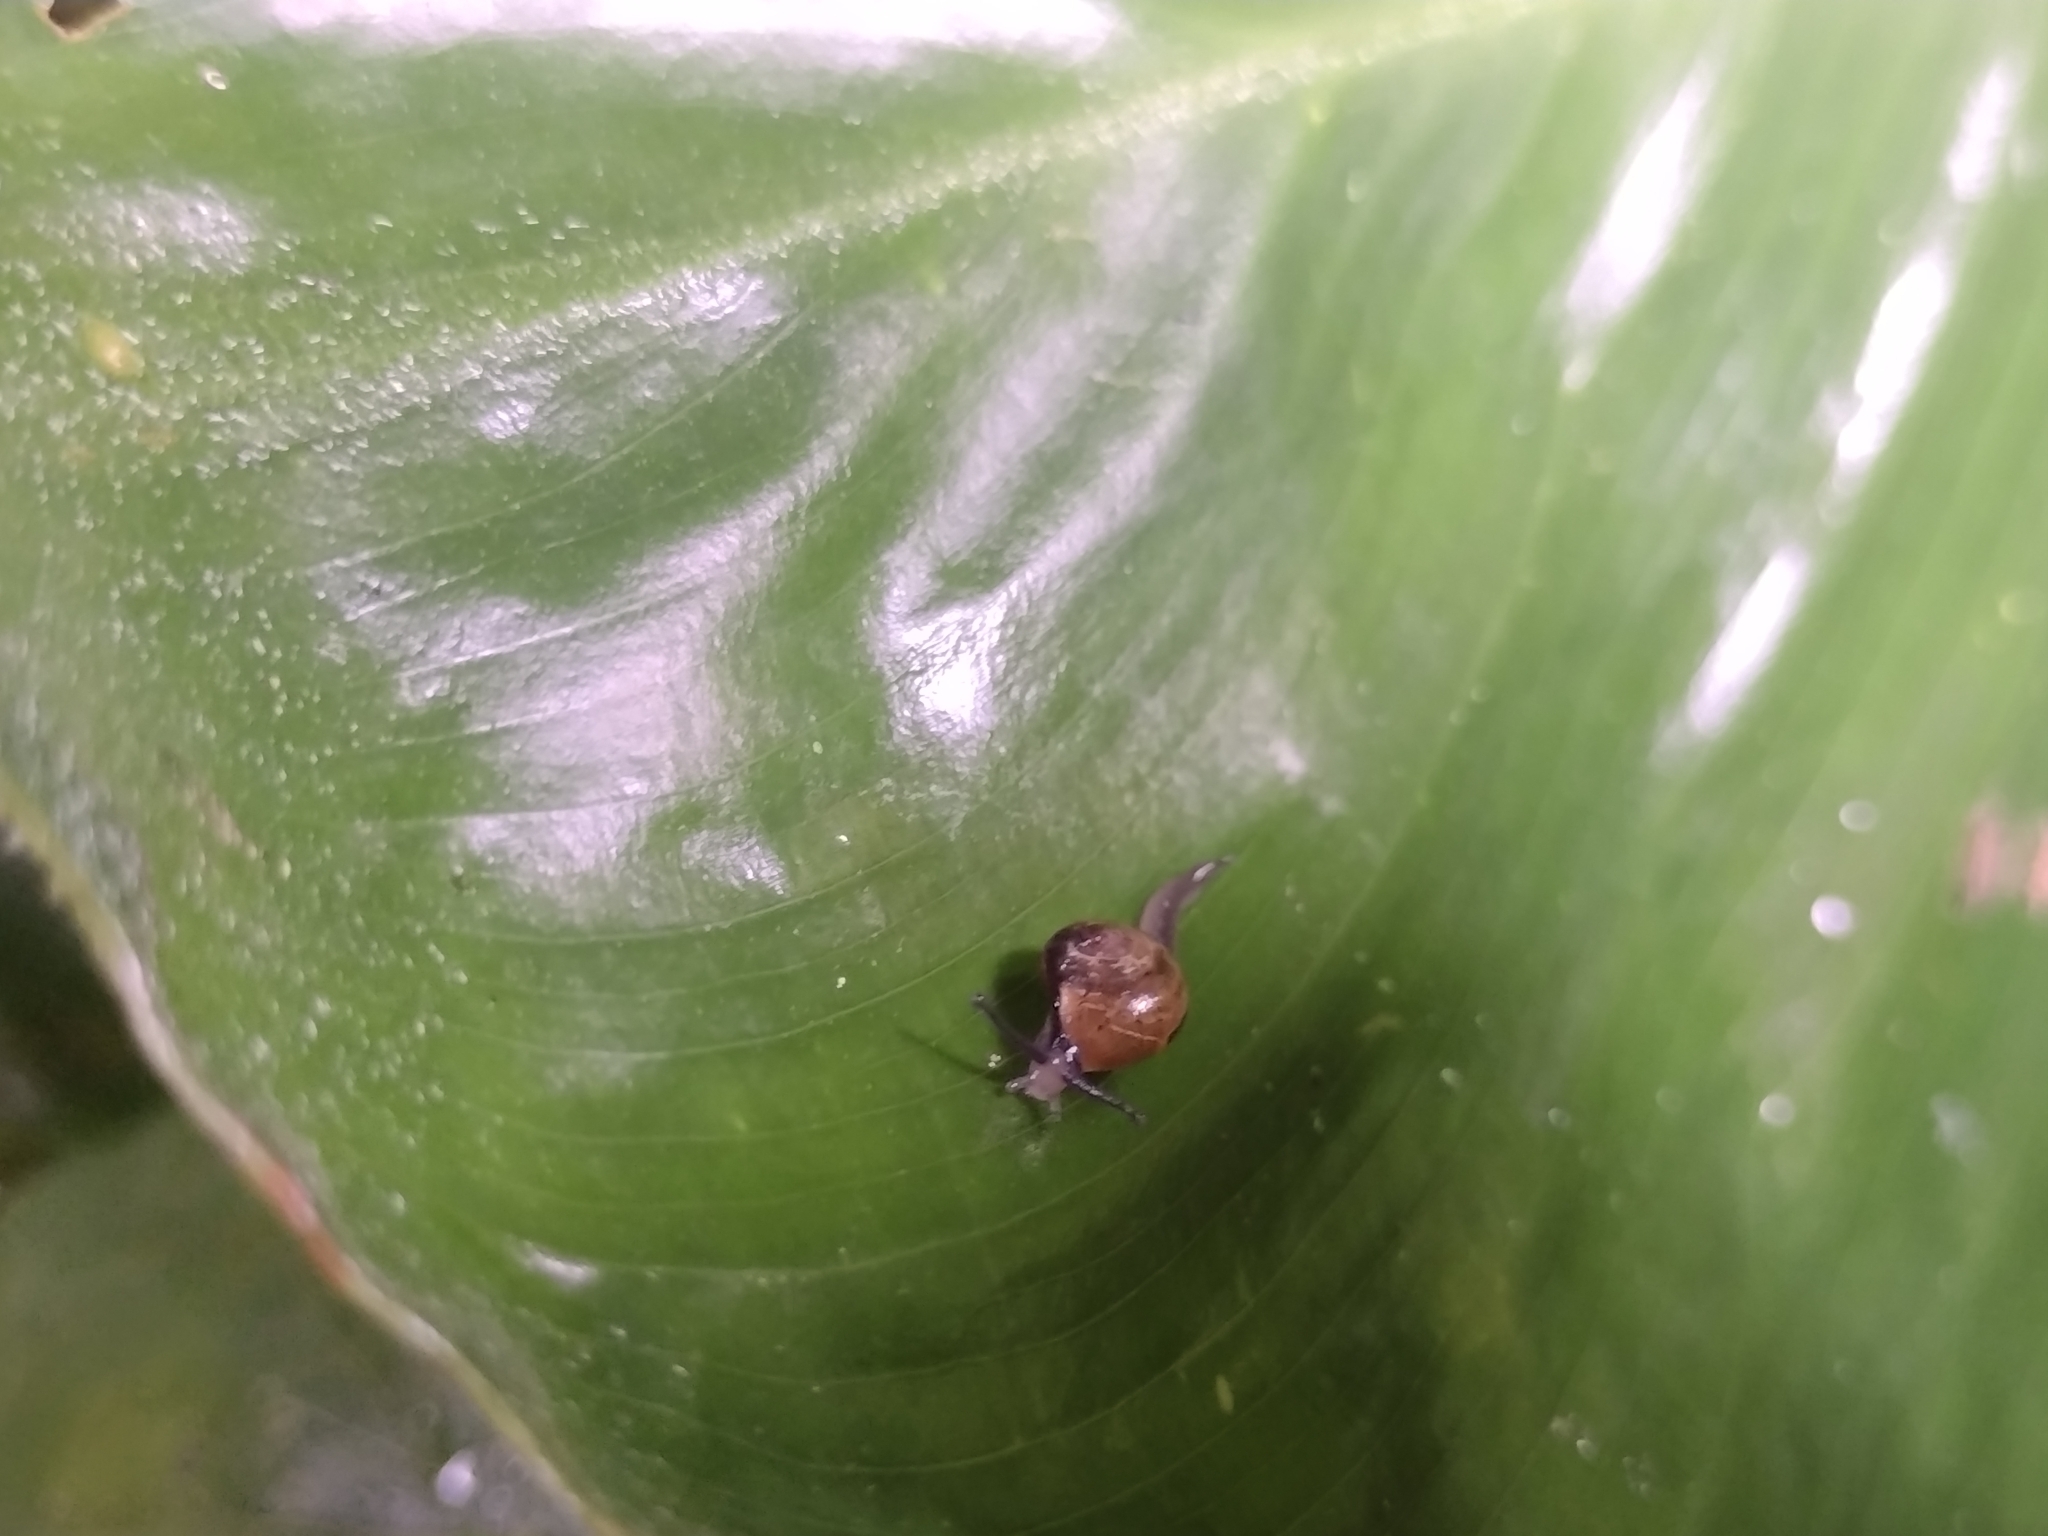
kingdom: Animalia
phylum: Mollusca
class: Gastropoda
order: Stylommatophora
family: Helicarionidae
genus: Ovachlamys
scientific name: Ovachlamys fulgens
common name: Jumping snail
